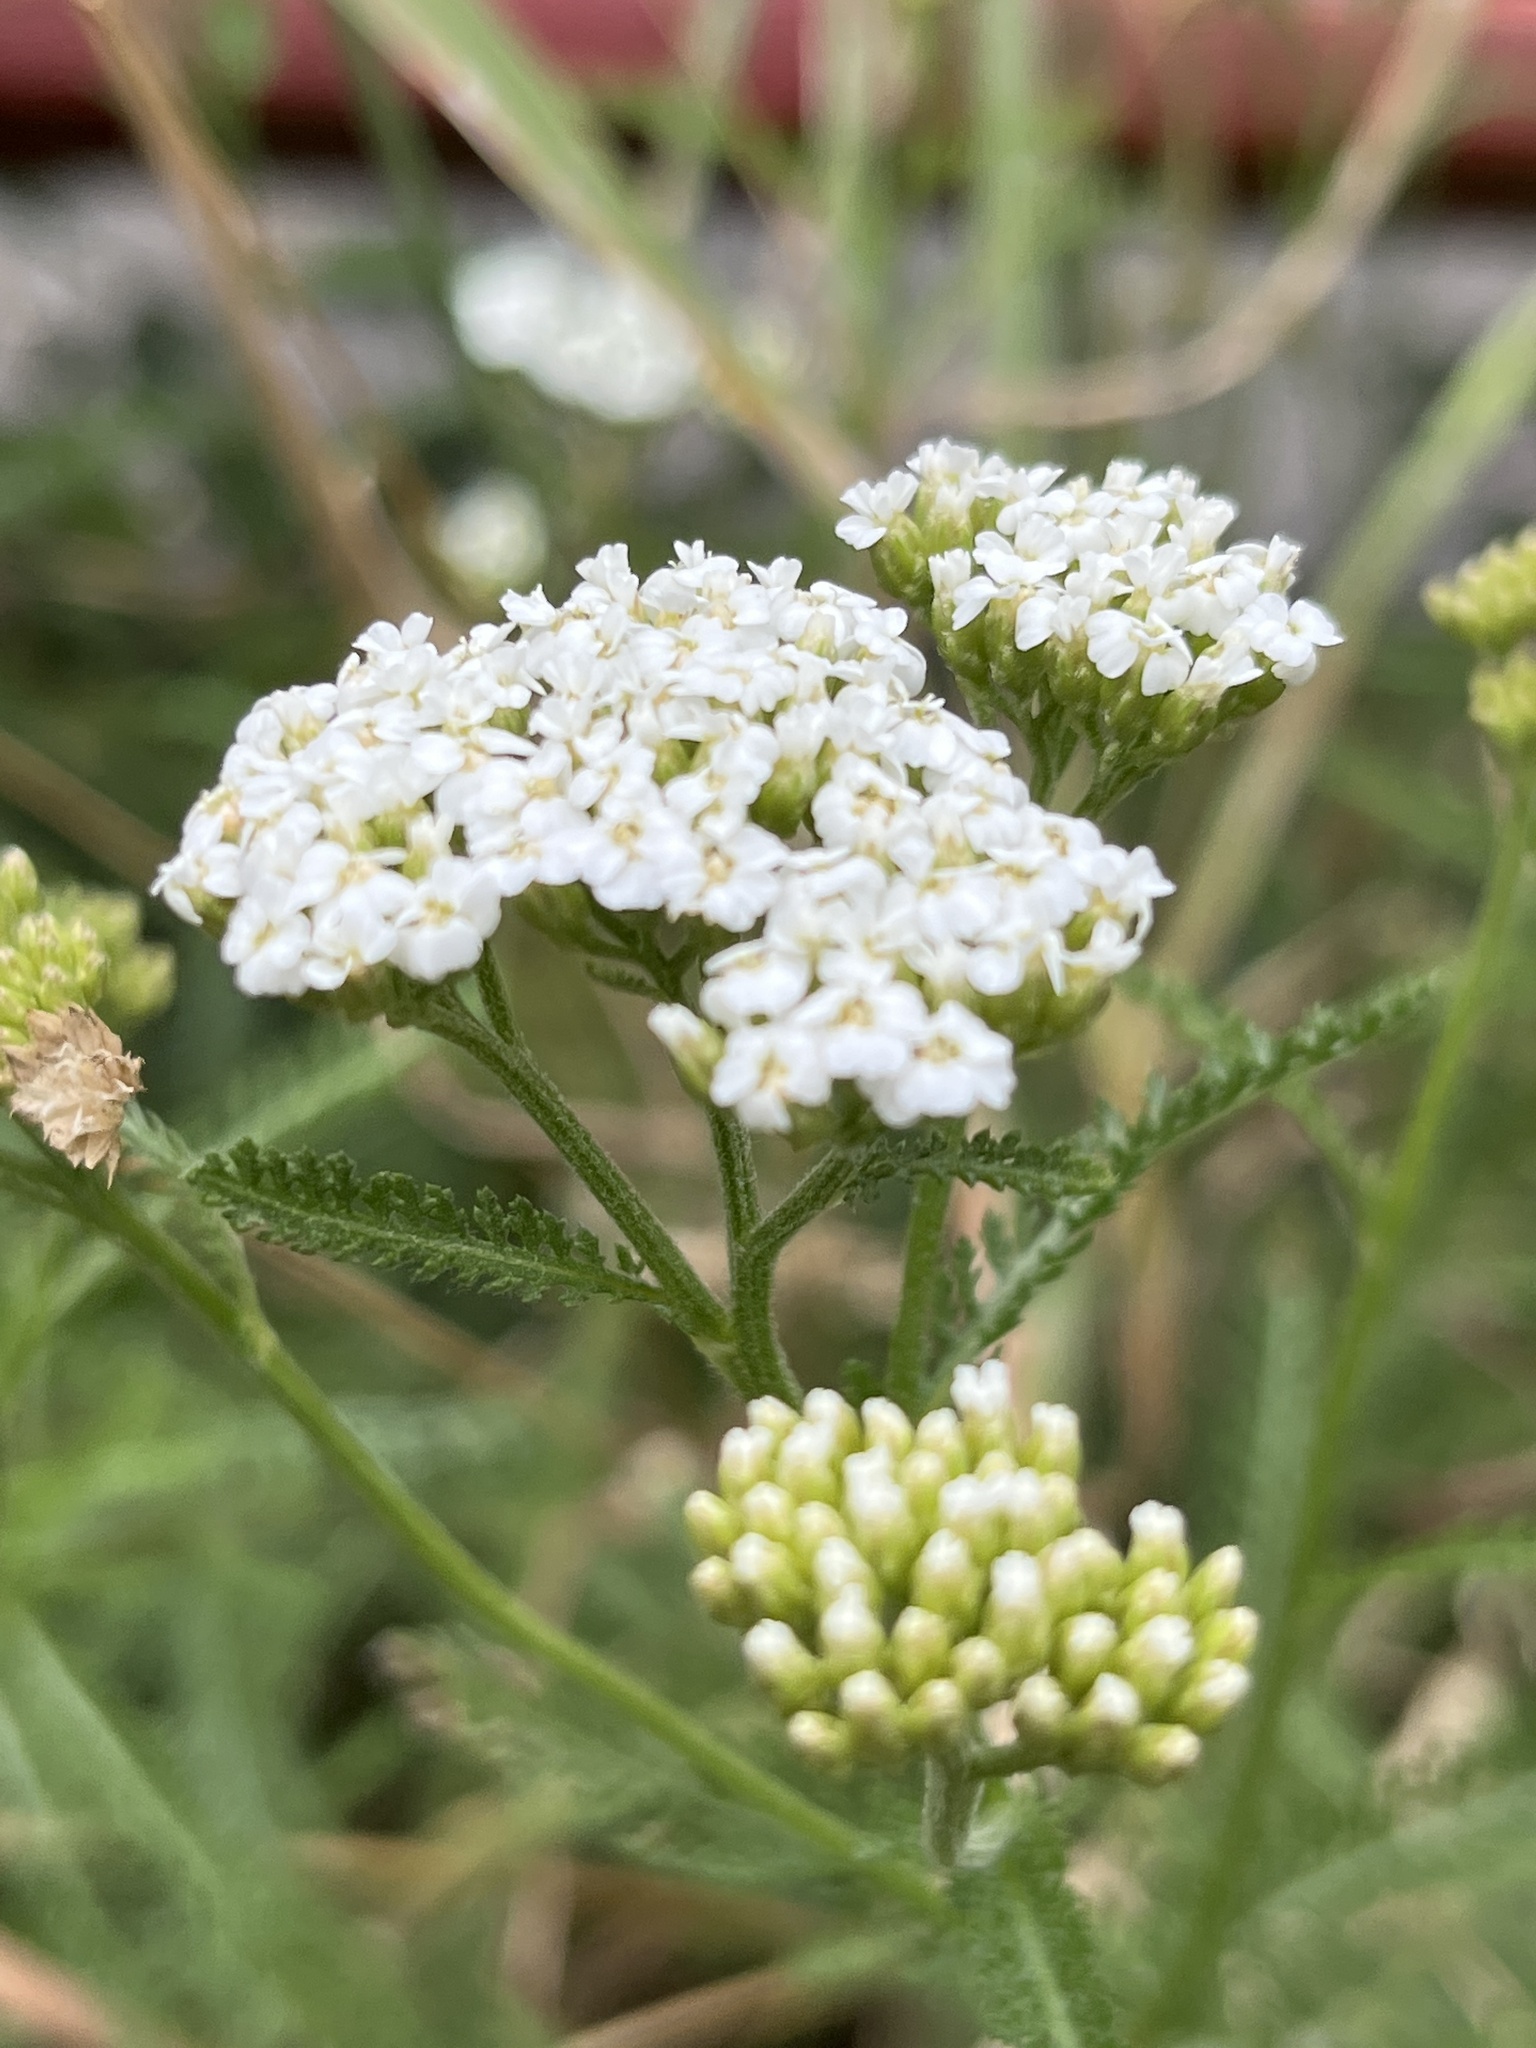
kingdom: Plantae
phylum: Tracheophyta
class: Magnoliopsida
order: Asterales
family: Asteraceae
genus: Achillea
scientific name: Achillea millefolium
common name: Yarrow
